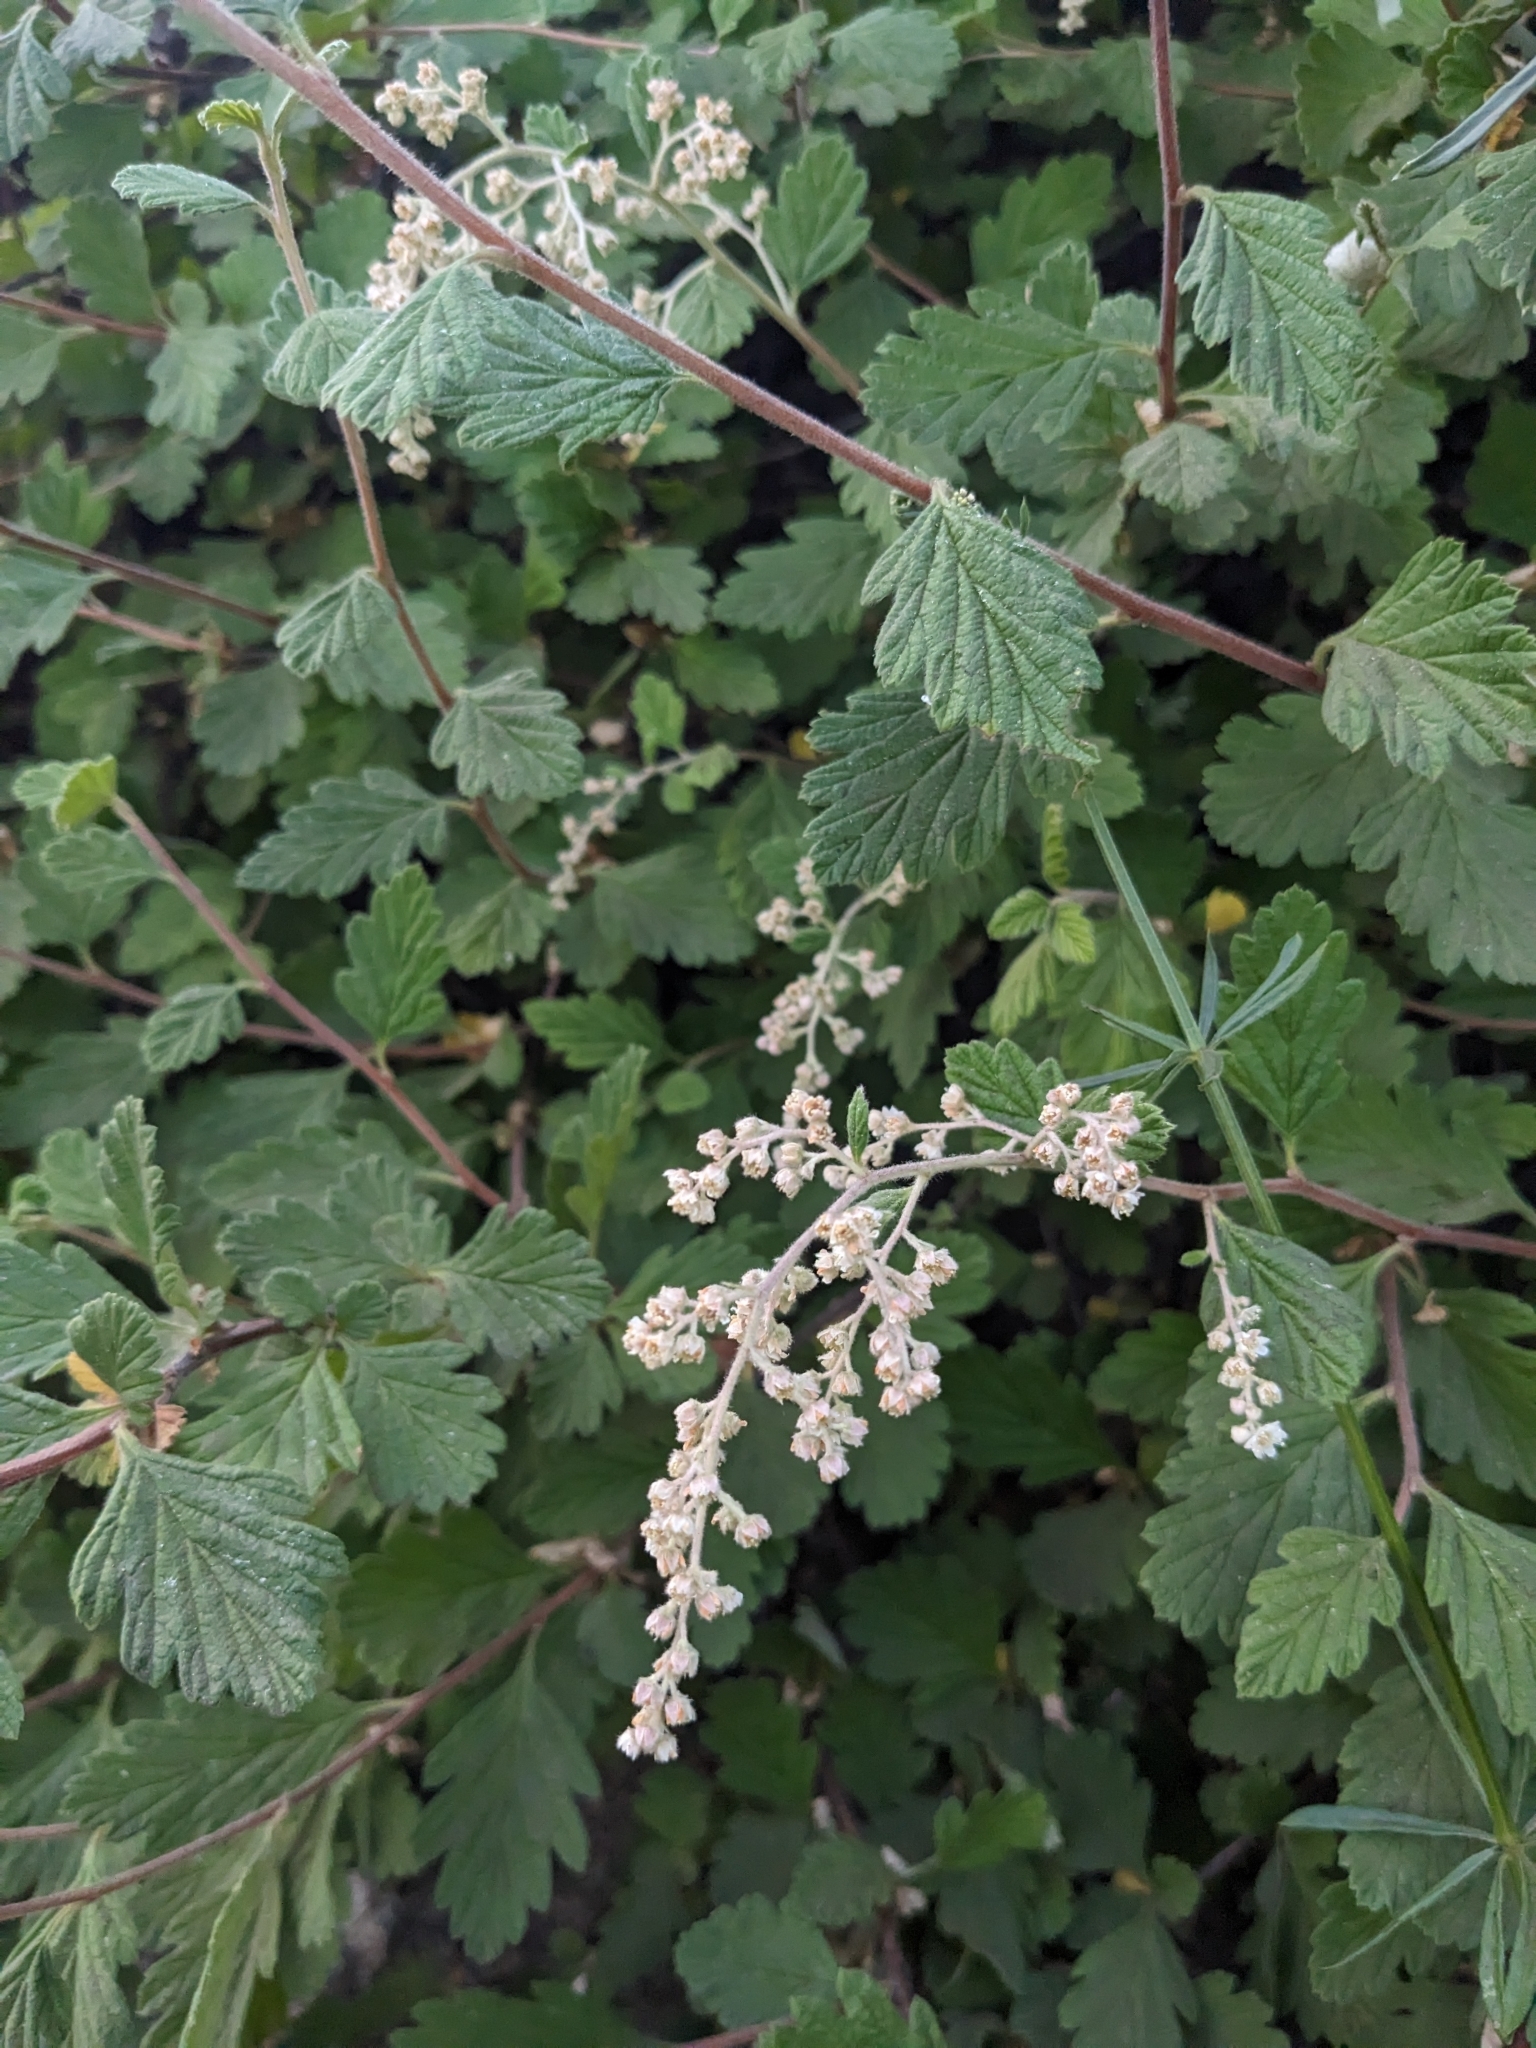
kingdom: Plantae
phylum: Tracheophyta
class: Magnoliopsida
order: Rosales
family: Rosaceae
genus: Holodiscus
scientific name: Holodiscus discolor
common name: Oceanspray
